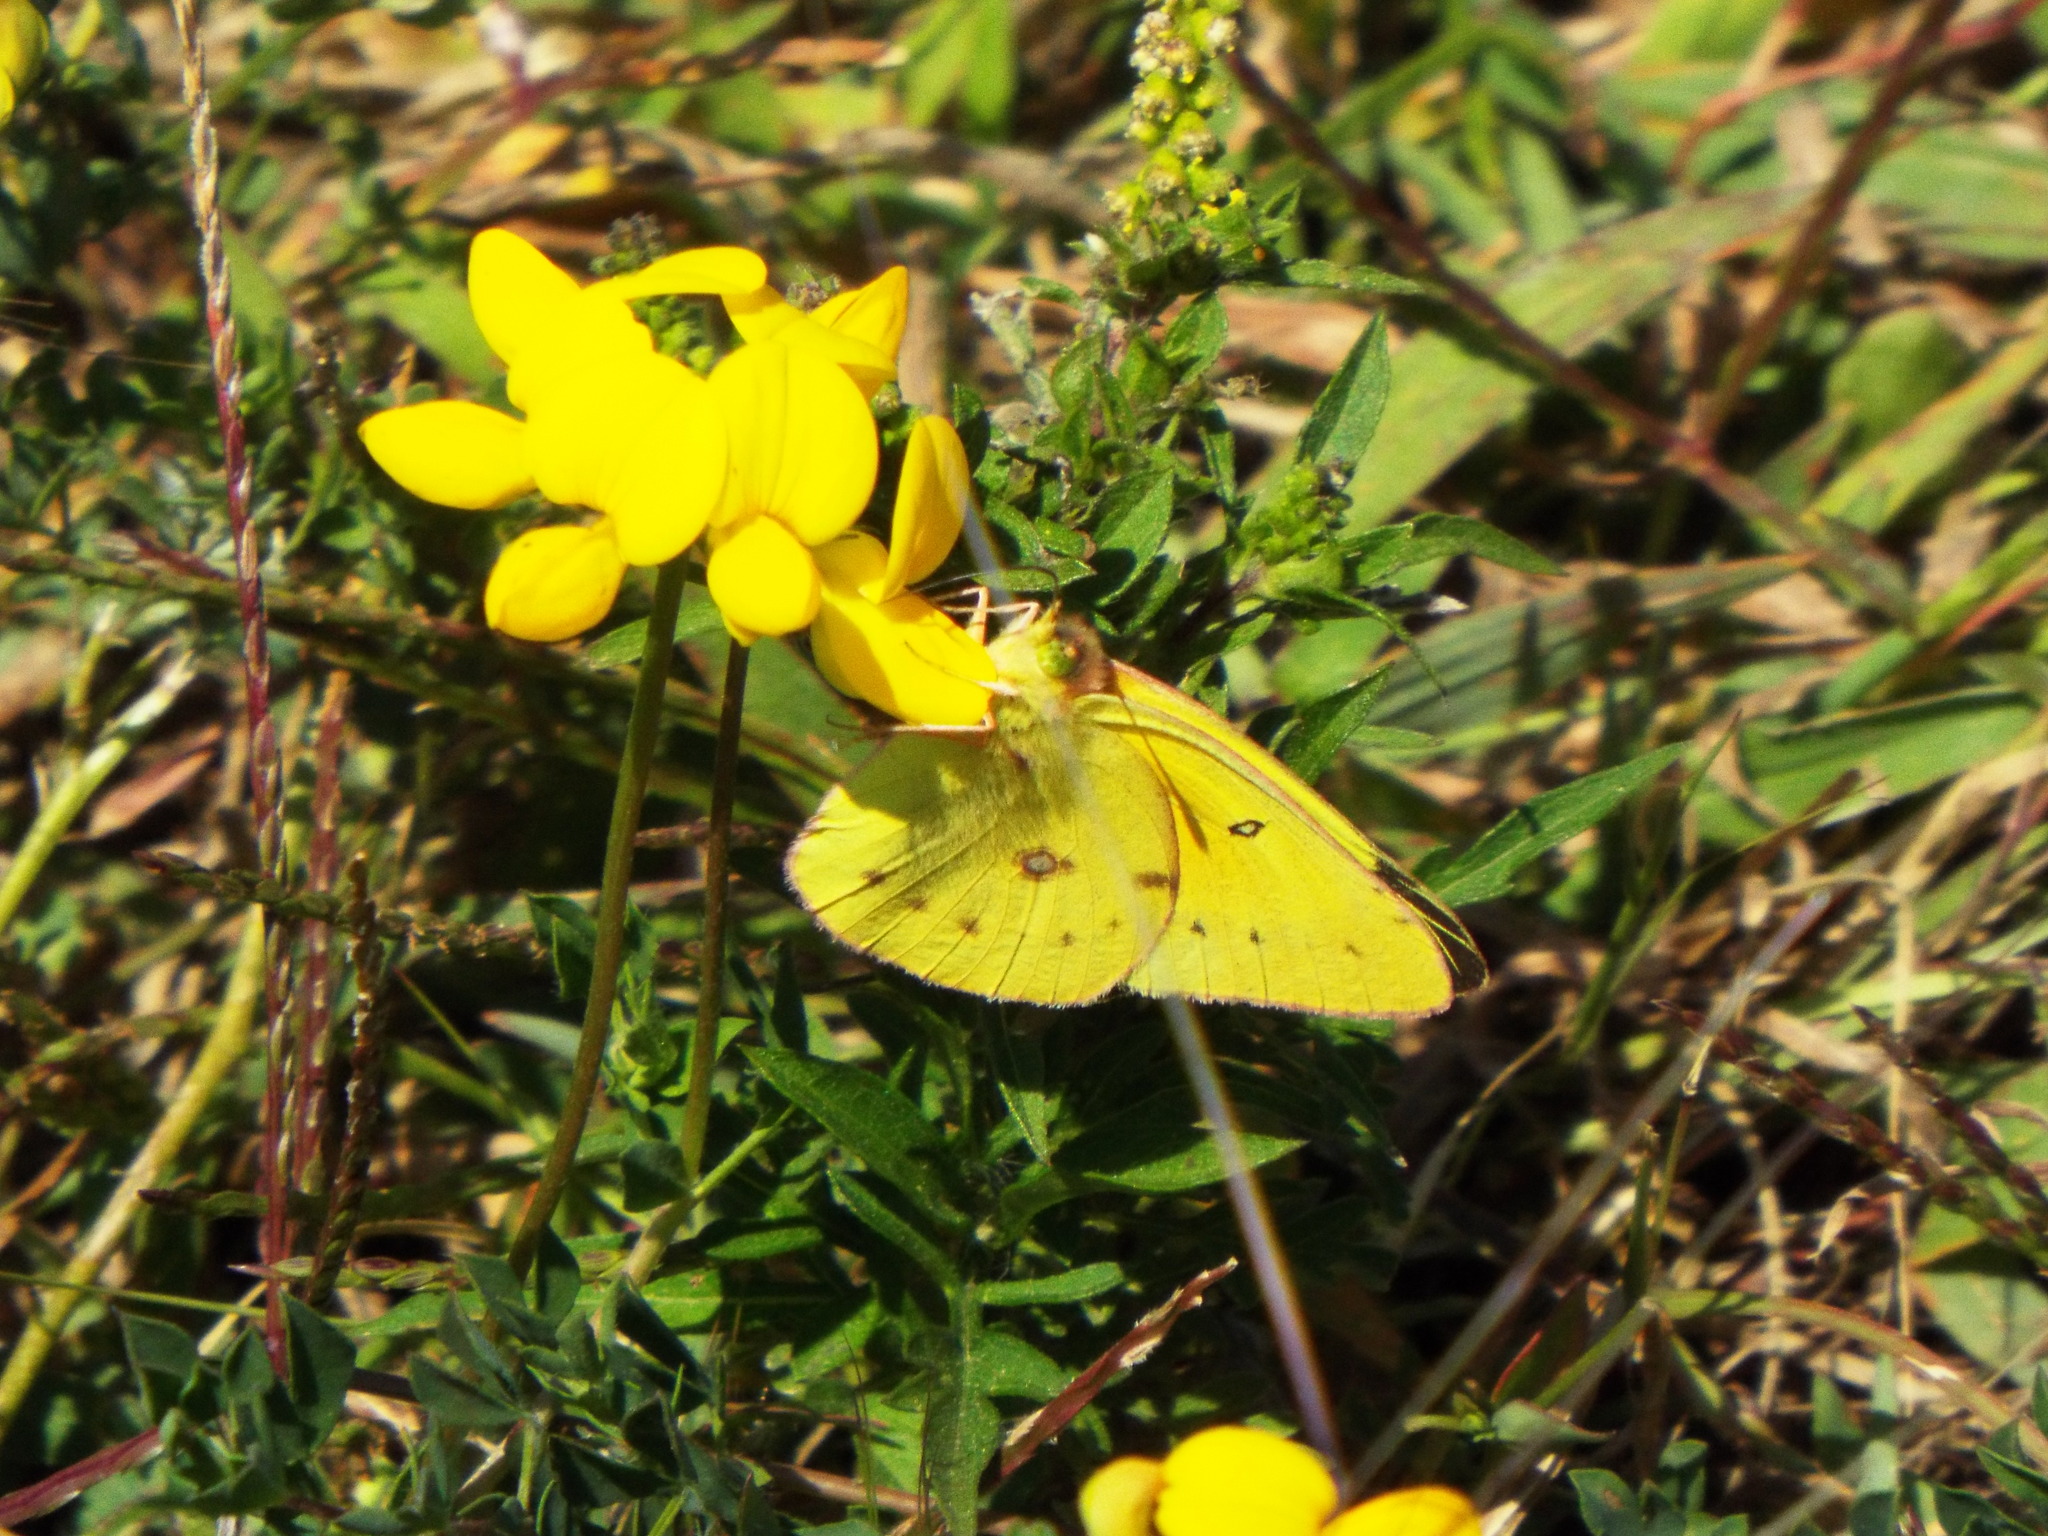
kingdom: Animalia
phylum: Arthropoda
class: Insecta
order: Lepidoptera
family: Pieridae
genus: Colias
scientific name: Colias eurytheme
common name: Alfalfa butterfly
